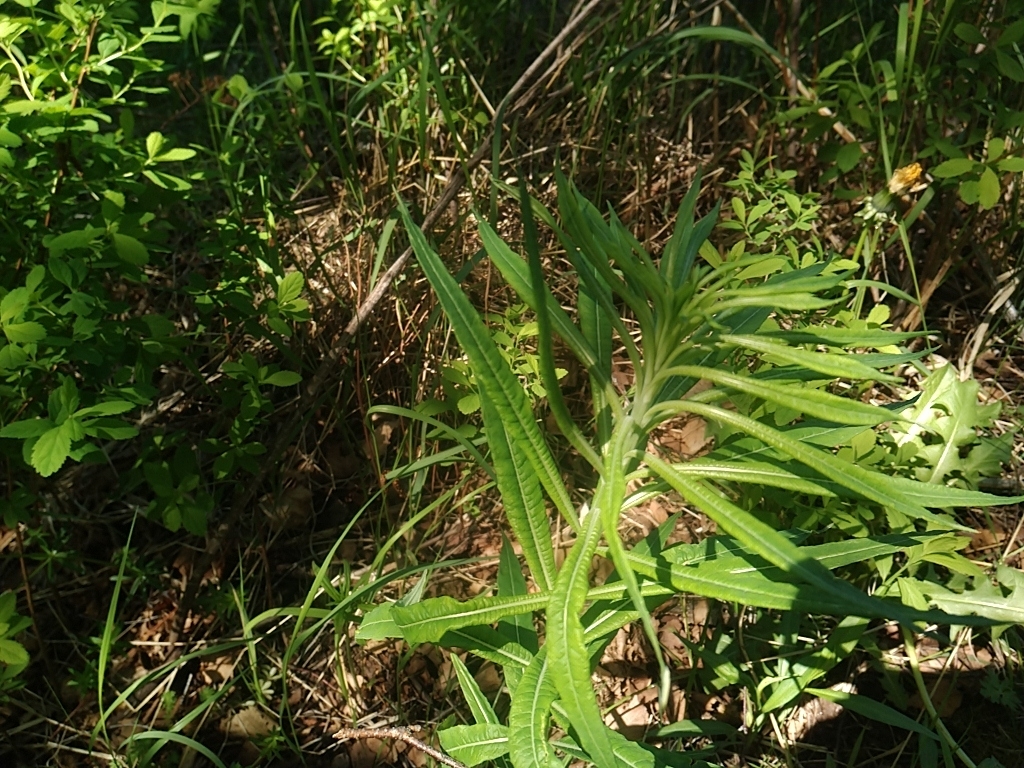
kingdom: Plantae
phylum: Tracheophyta
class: Magnoliopsida
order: Myrtales
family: Onagraceae
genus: Chamaenerion
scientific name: Chamaenerion angustifolium
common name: Fireweed
